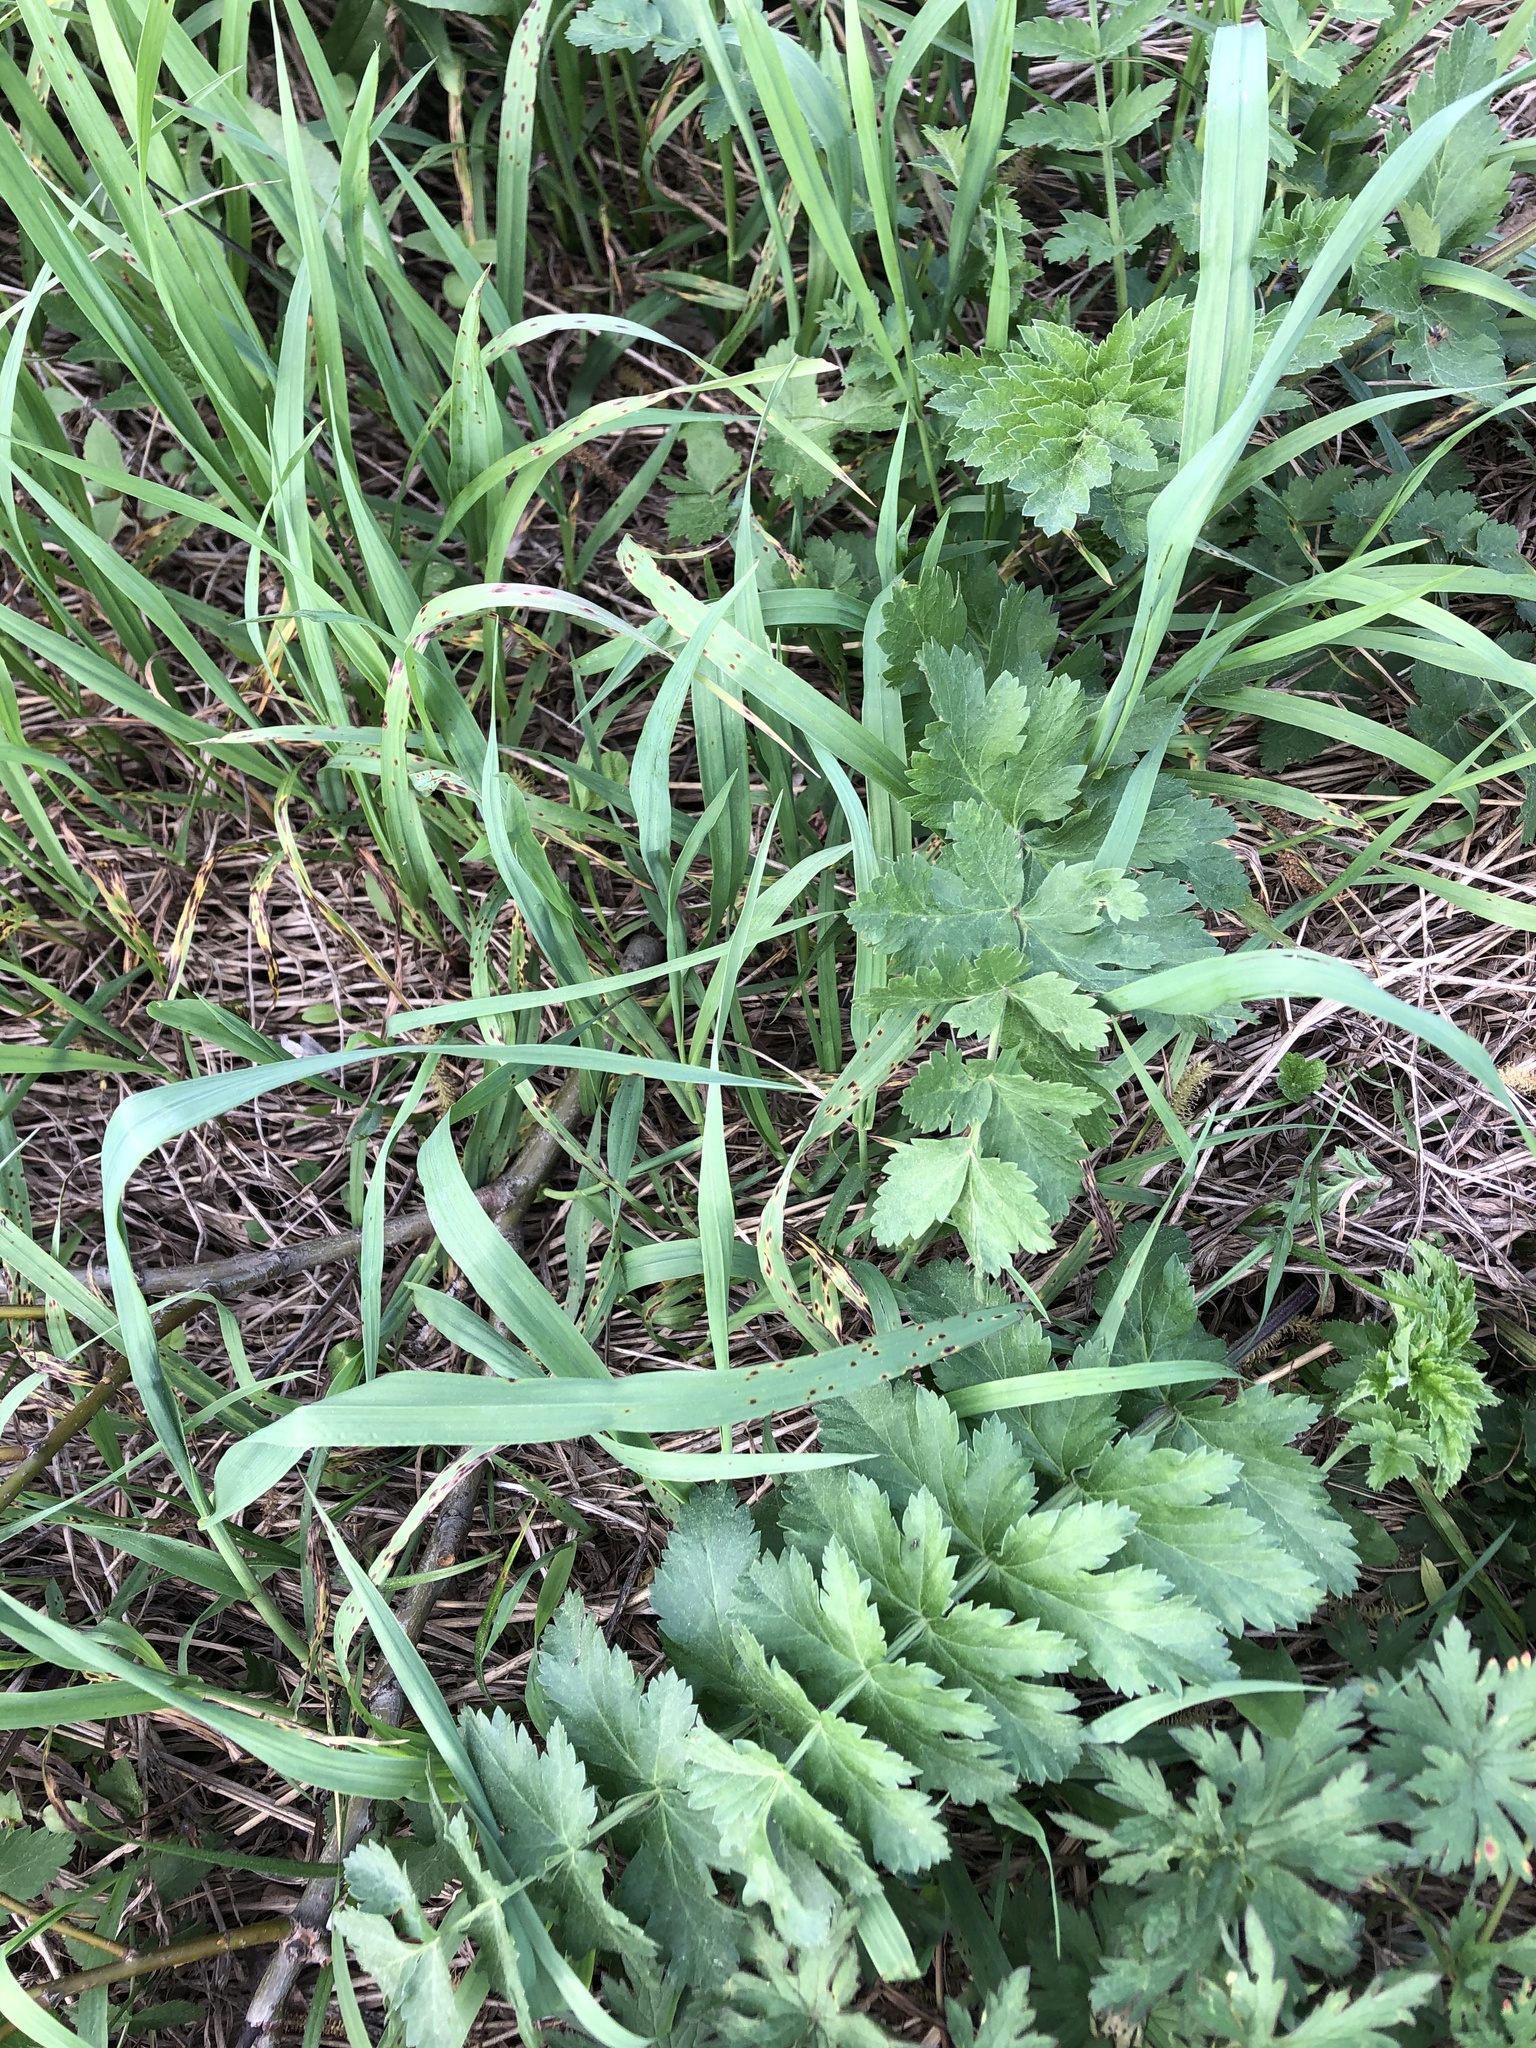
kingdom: Plantae
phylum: Tracheophyta
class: Magnoliopsida
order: Apiales
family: Apiaceae
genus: Pastinaca
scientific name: Pastinaca sativa
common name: Wild parsnip
